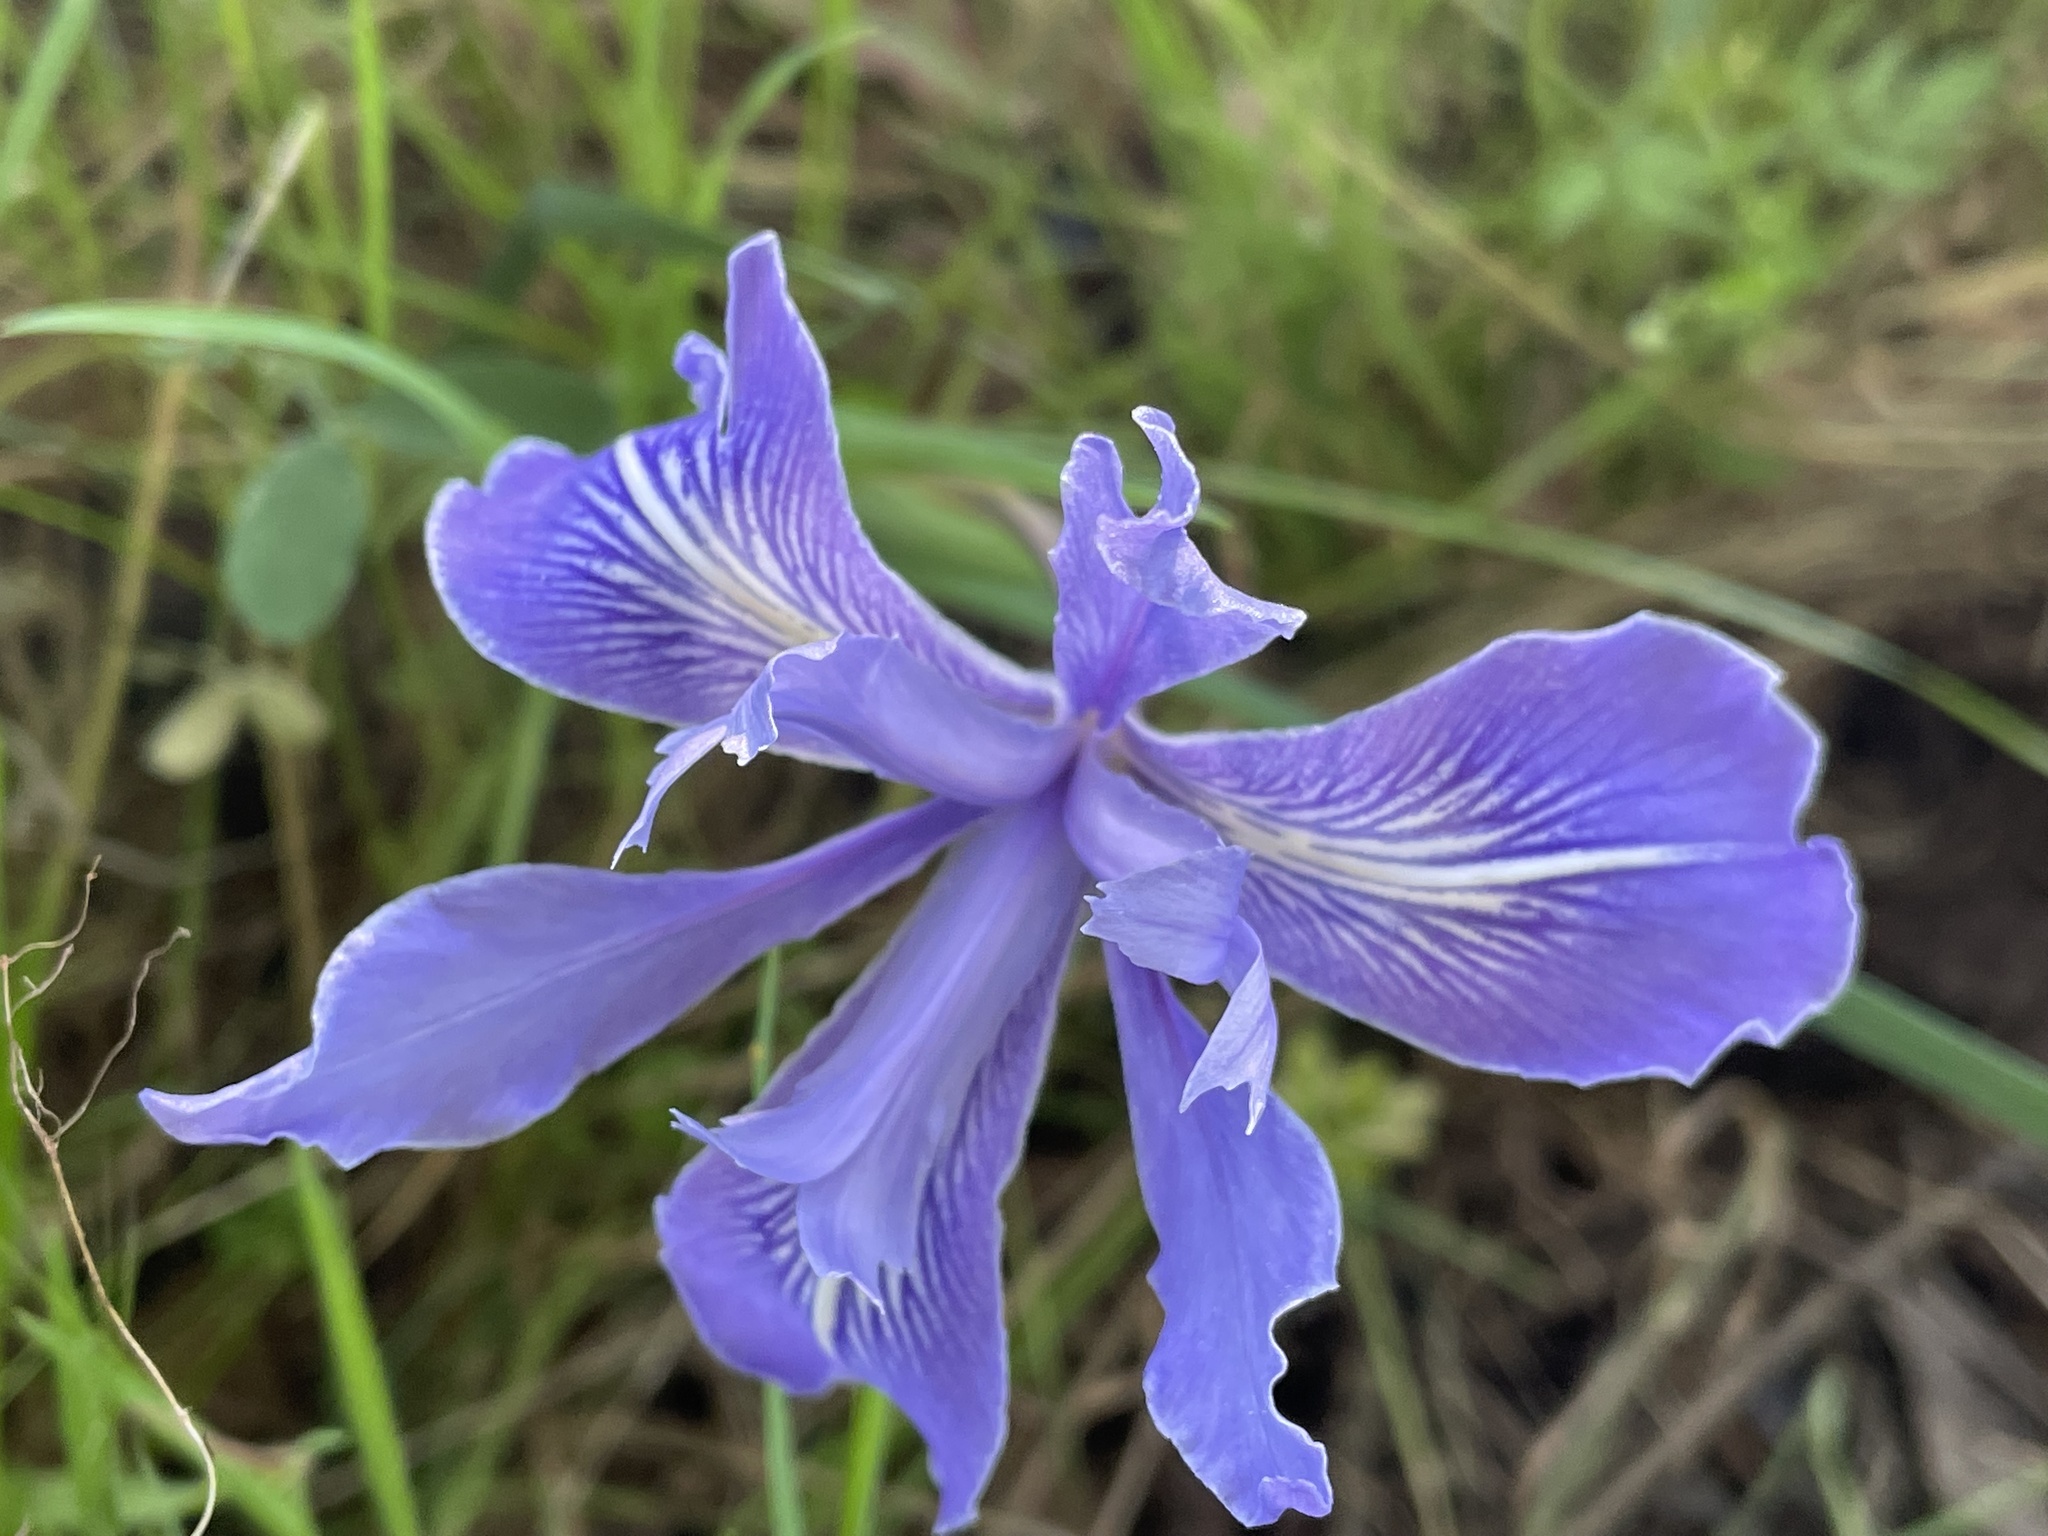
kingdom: Plantae
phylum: Tracheophyta
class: Liliopsida
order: Asparagales
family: Iridaceae
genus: Iris
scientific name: Iris macrosiphon
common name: Ground iris
